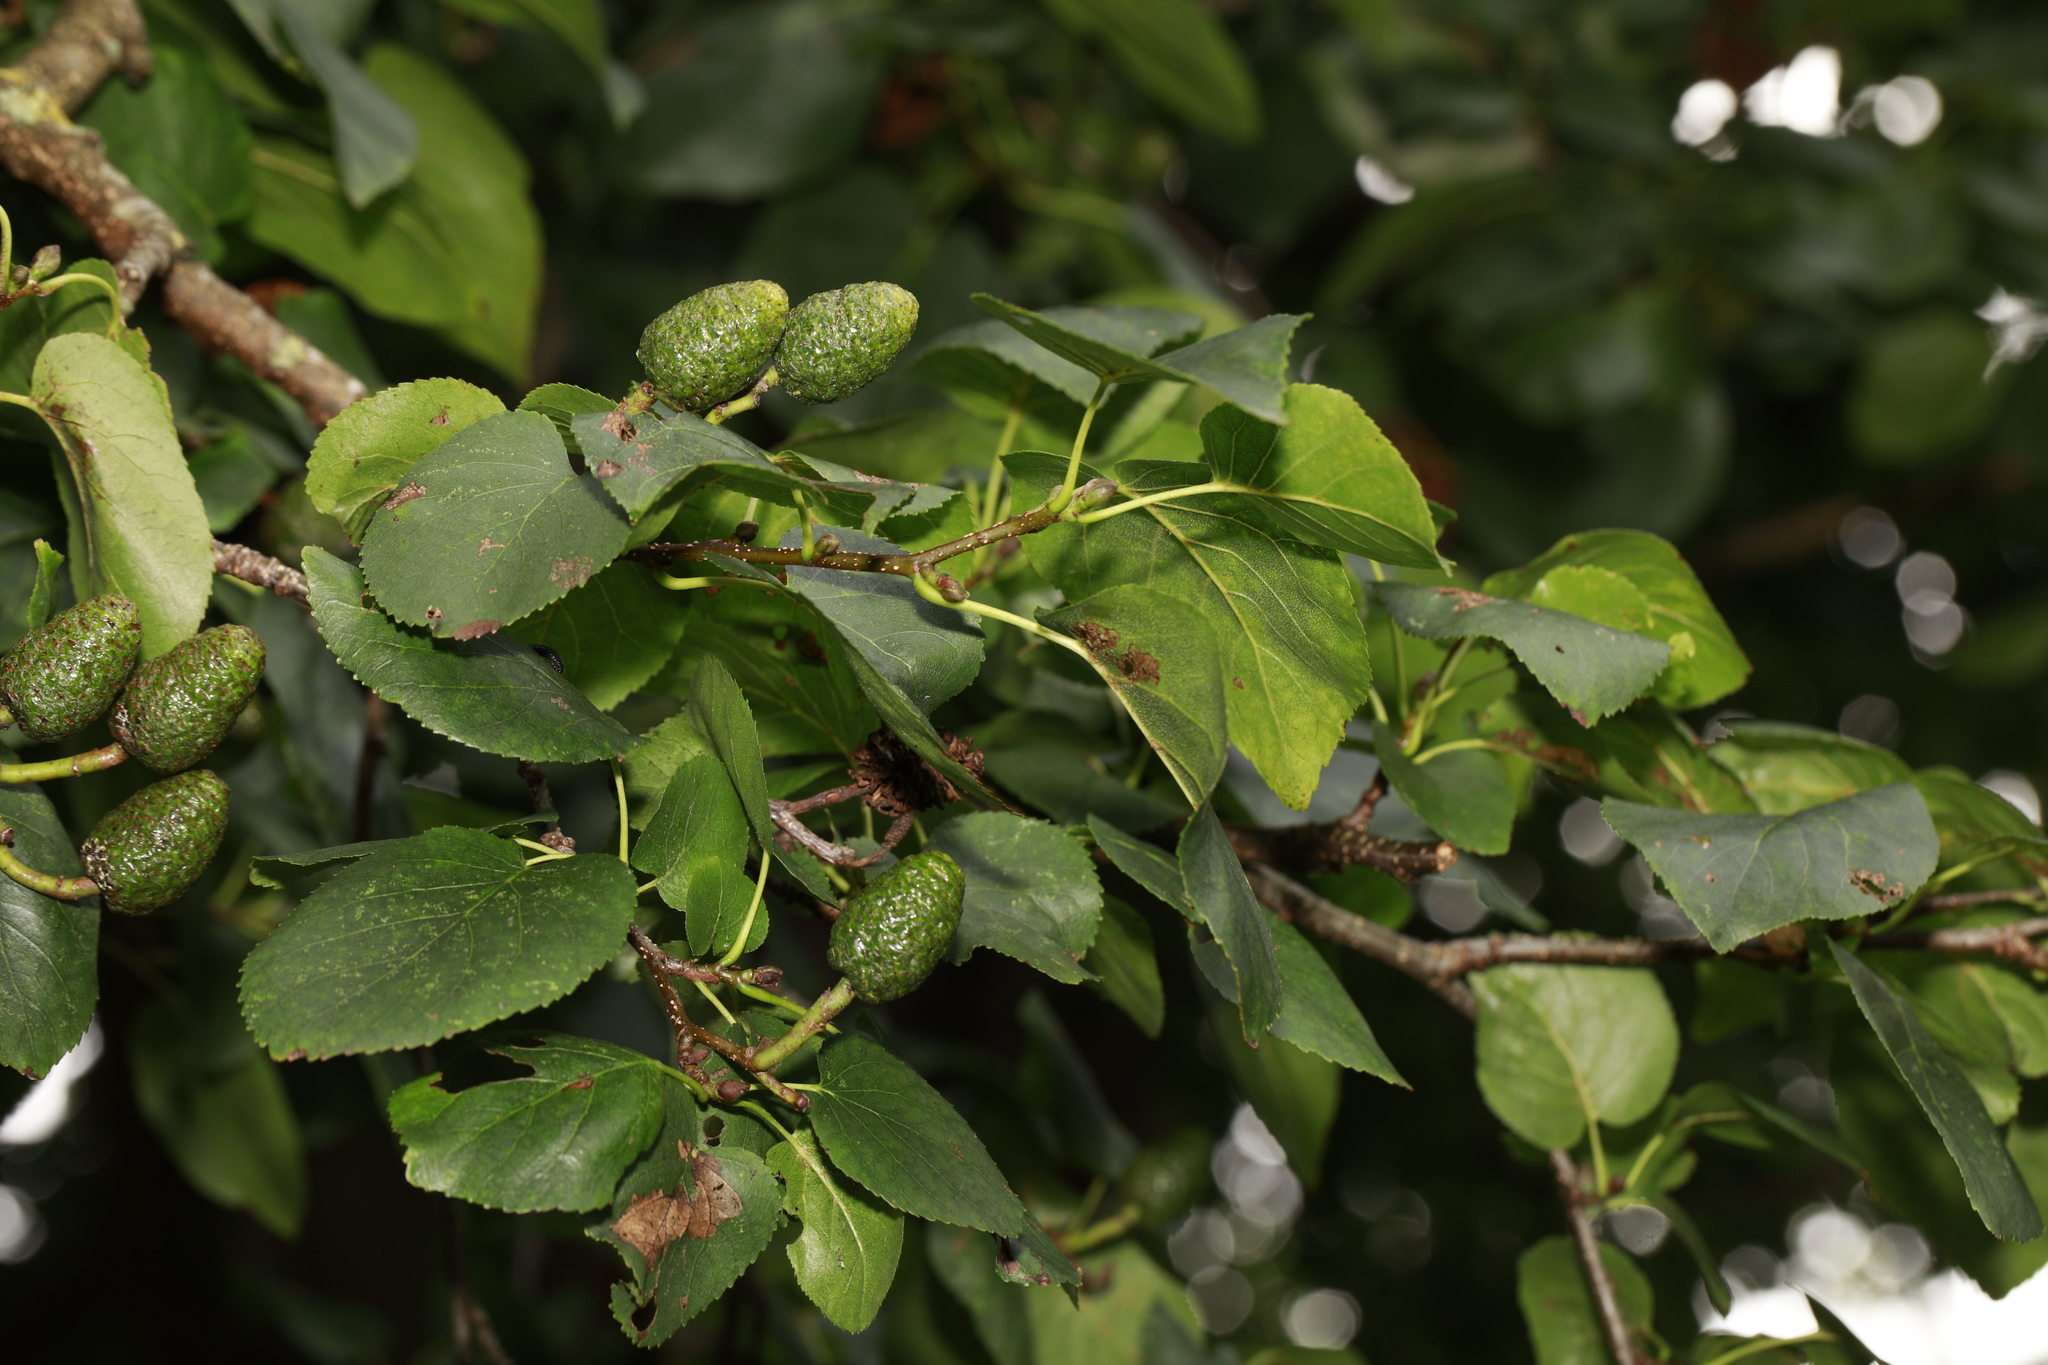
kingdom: Plantae
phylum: Tracheophyta
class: Magnoliopsida
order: Fagales
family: Betulaceae
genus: Alnus
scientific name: Alnus cordata
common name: Italian alder
